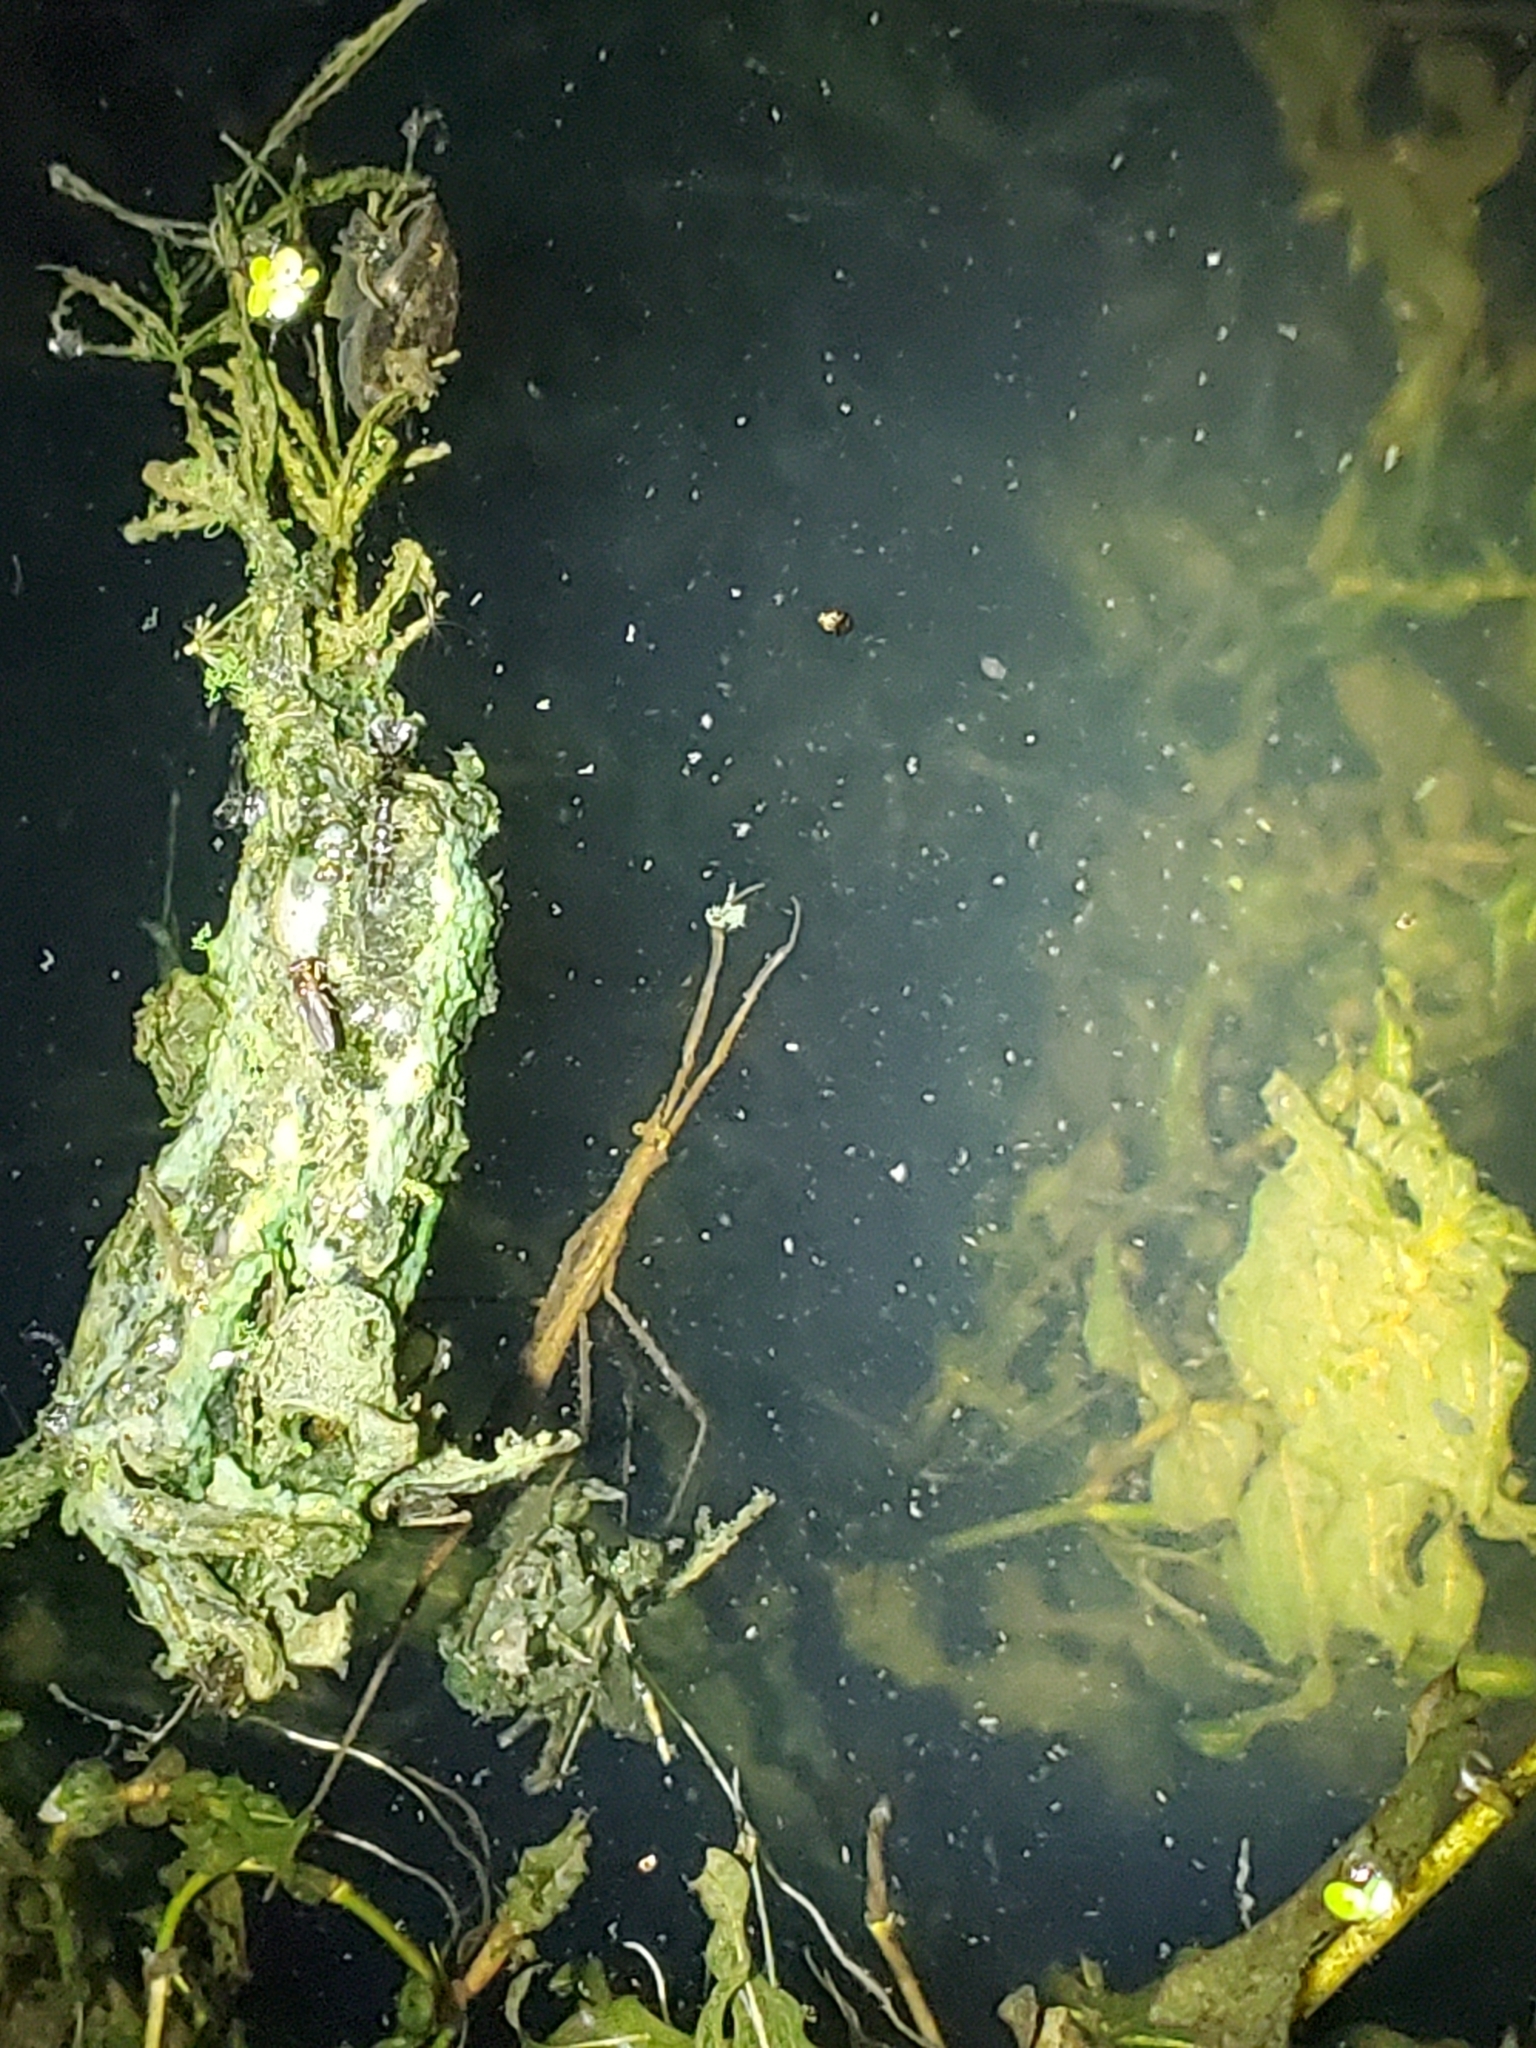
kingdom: Animalia
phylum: Arthropoda
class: Insecta
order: Hemiptera
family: Nepidae
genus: Ranatra
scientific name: Ranatra fusca
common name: Brown waterscorpion
